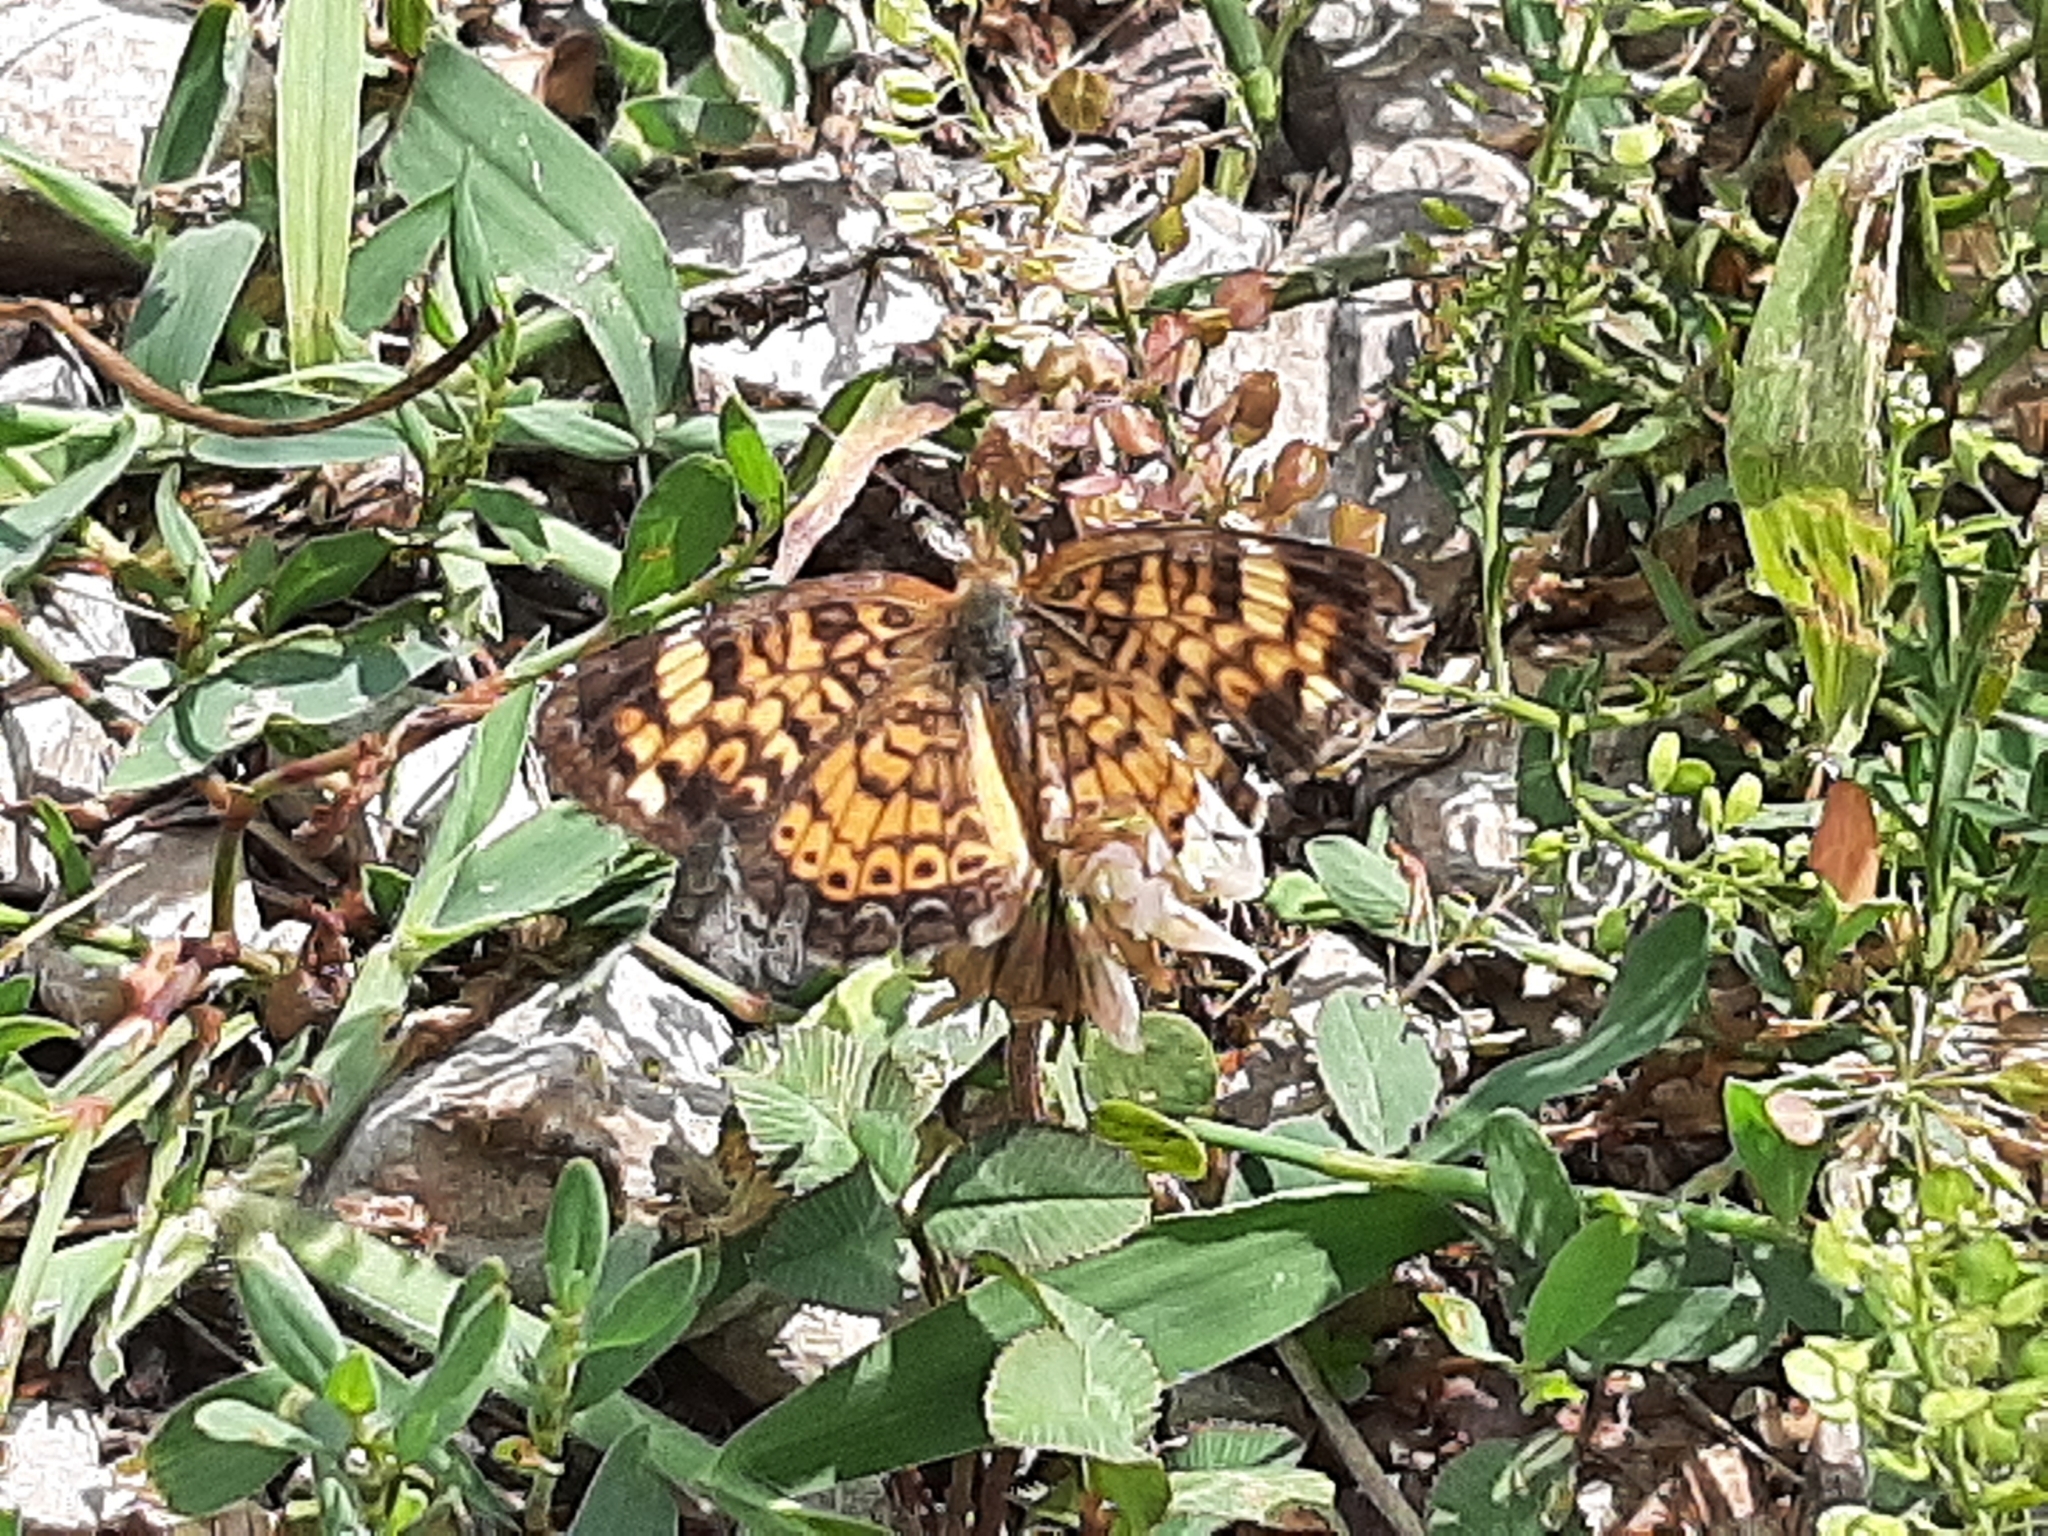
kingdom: Animalia
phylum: Arthropoda
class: Insecta
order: Lepidoptera
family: Nymphalidae
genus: Phyciodes
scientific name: Phyciodes tharos
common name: Pearl crescent
